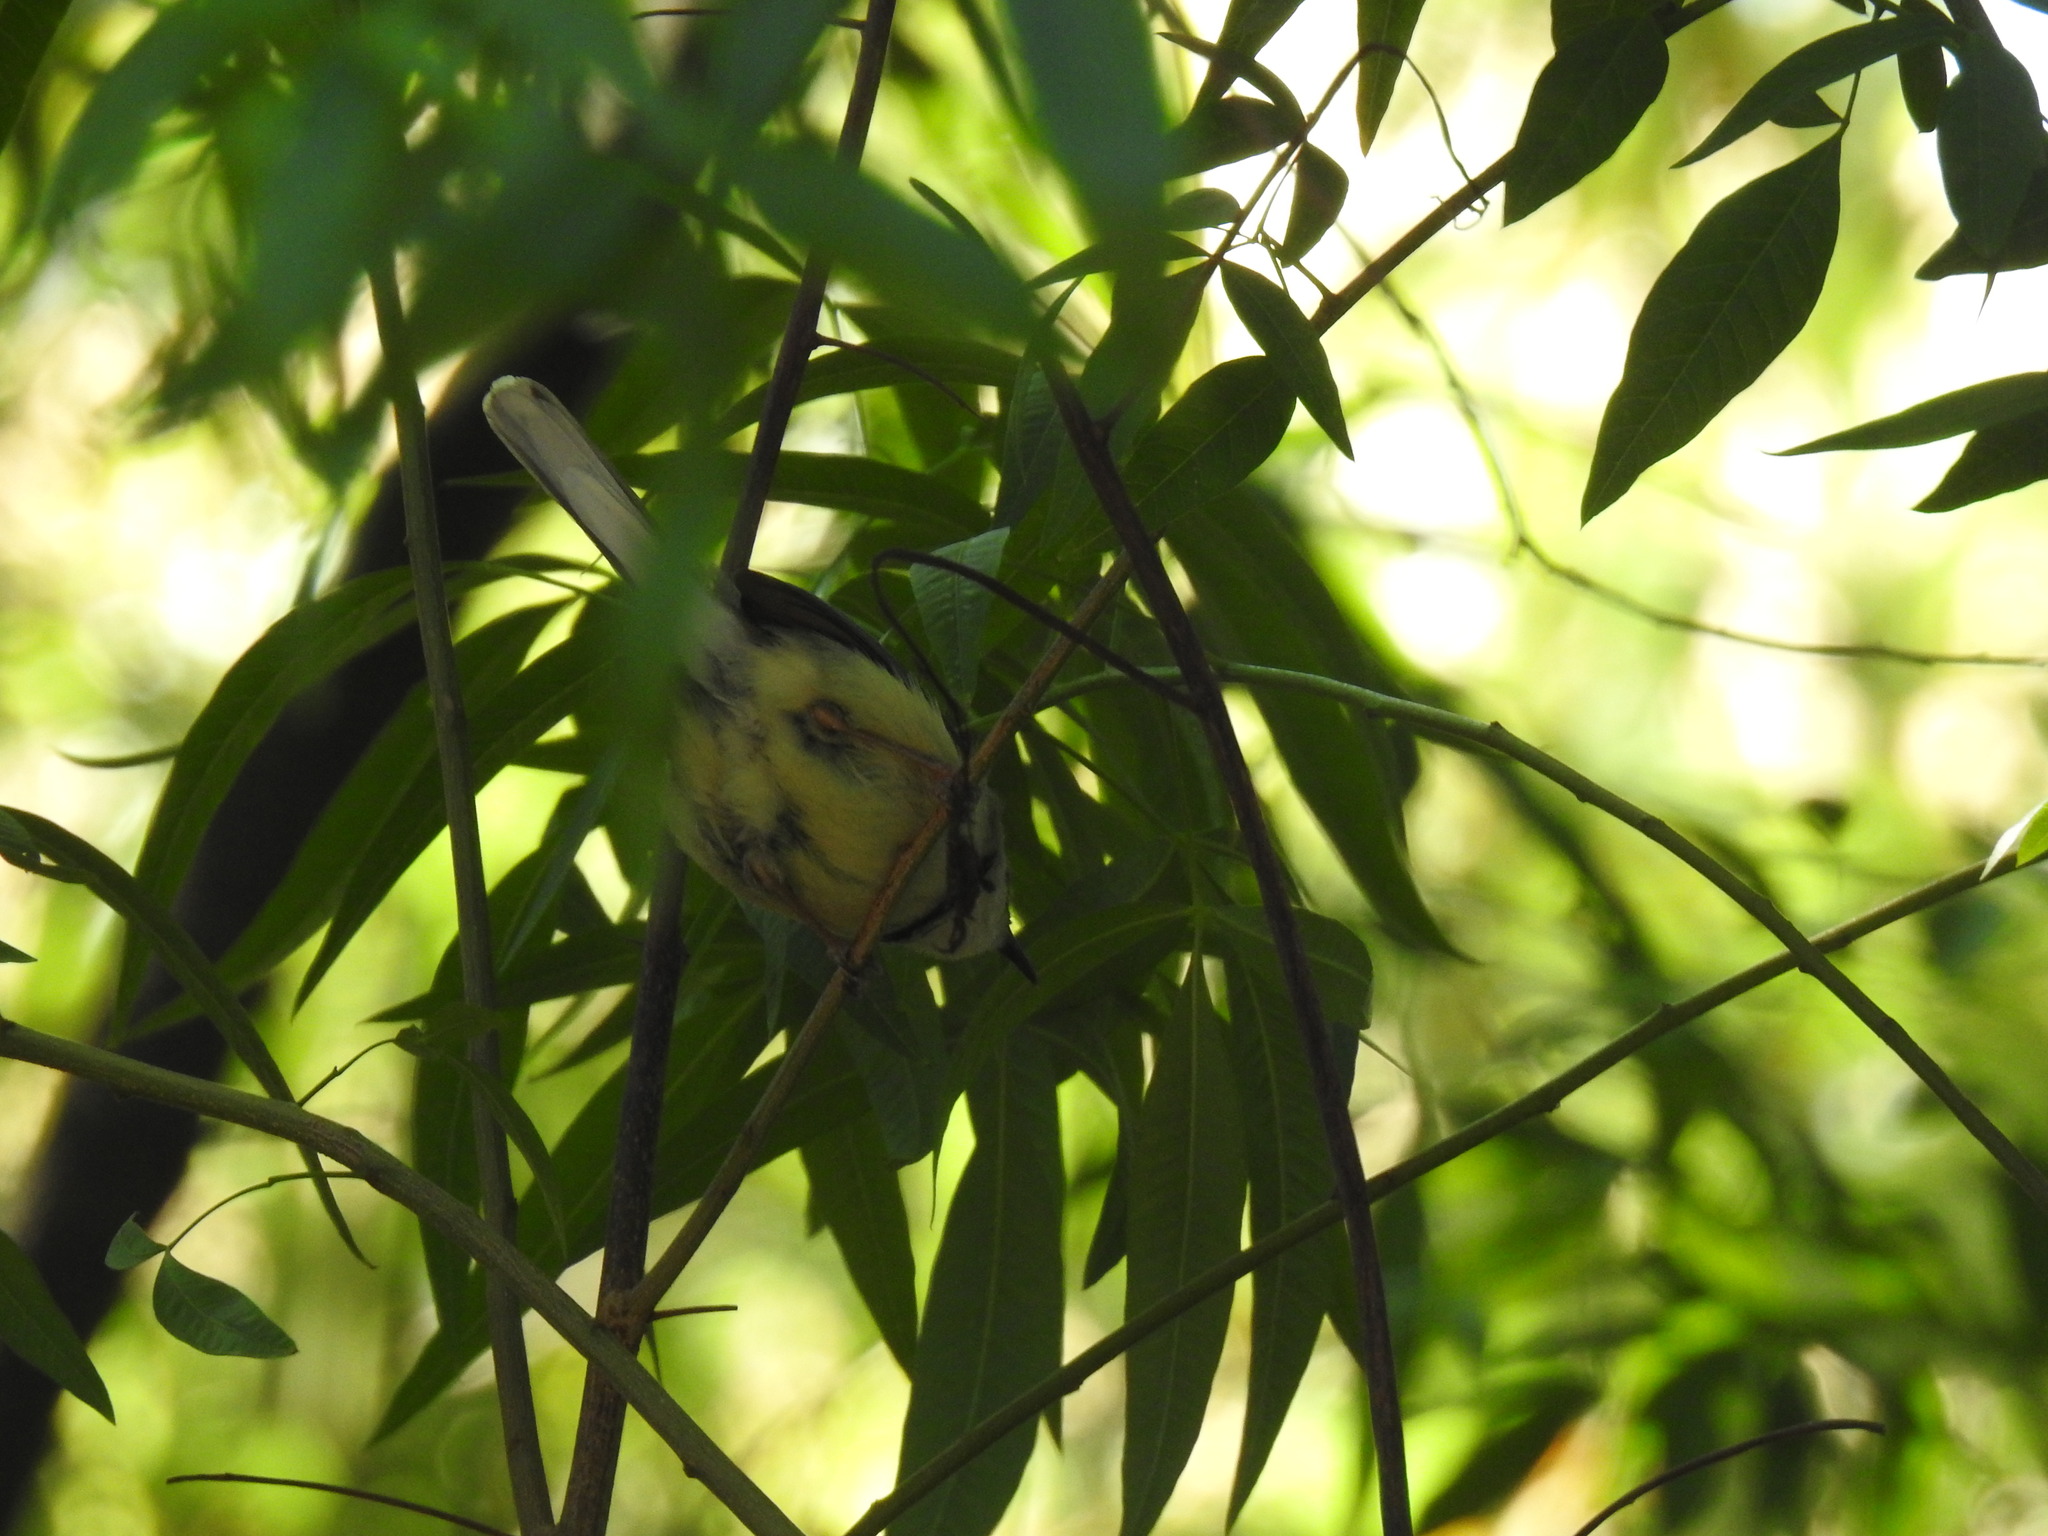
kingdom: Animalia
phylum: Chordata
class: Aves
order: Passeriformes
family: Cisticolidae
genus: Apalis
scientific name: Apalis thoracica
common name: Bar-throated apalis
